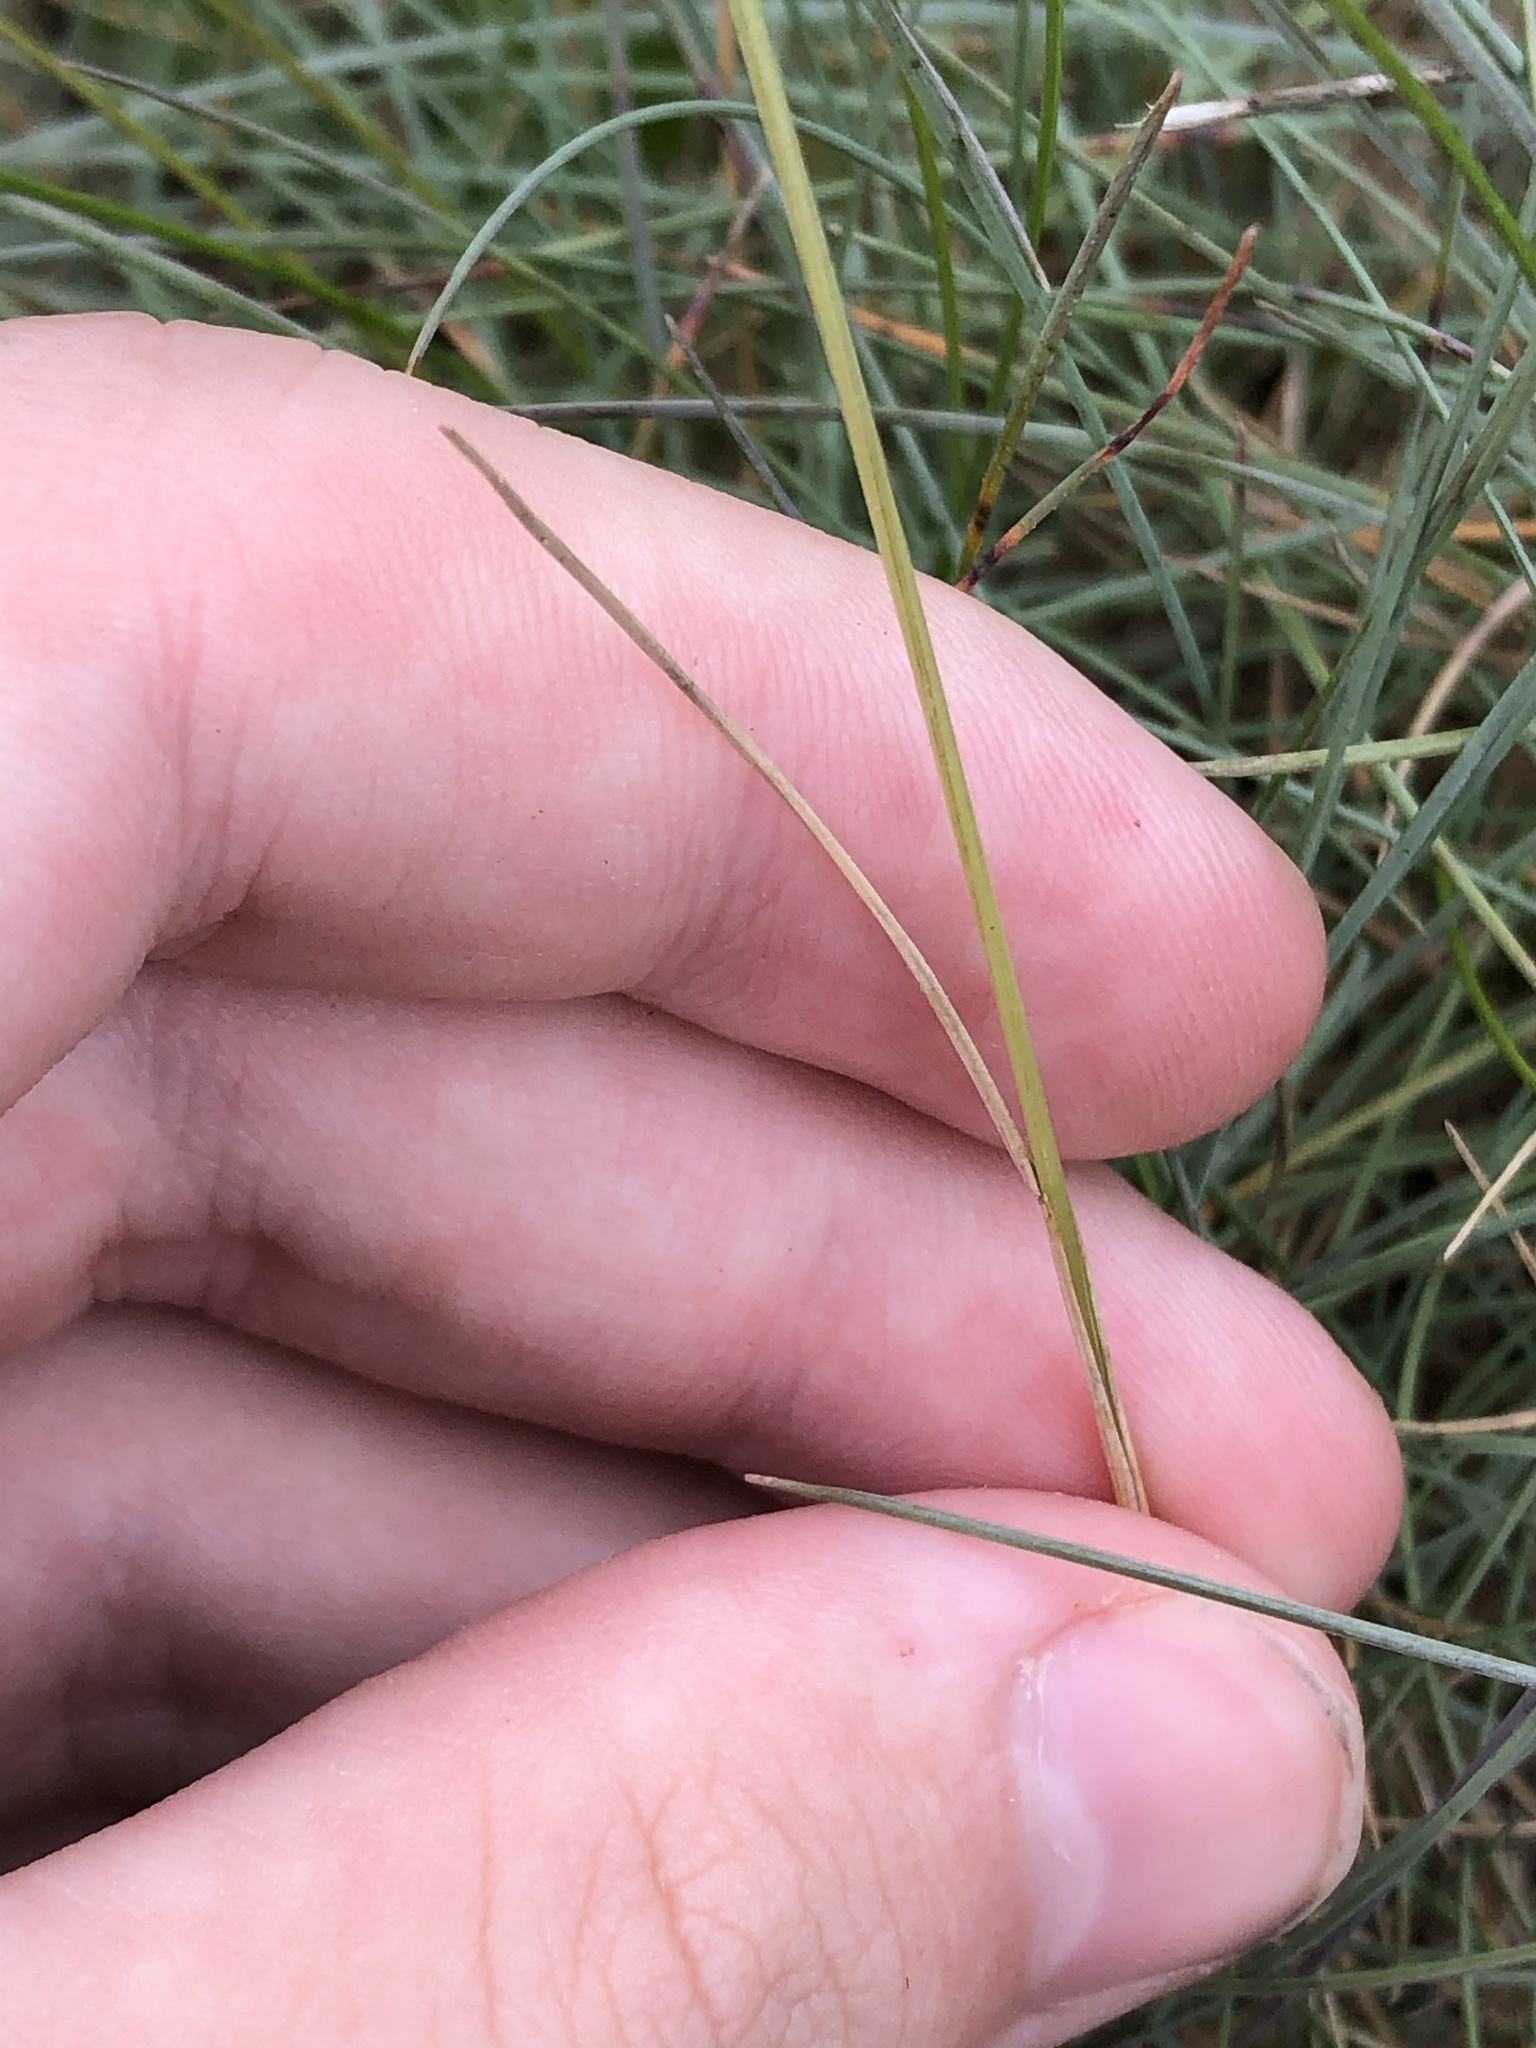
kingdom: Plantae
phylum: Tracheophyta
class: Liliopsida
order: Poales
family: Poaceae
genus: Festuca
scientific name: Festuca rubra
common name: Red fescue
